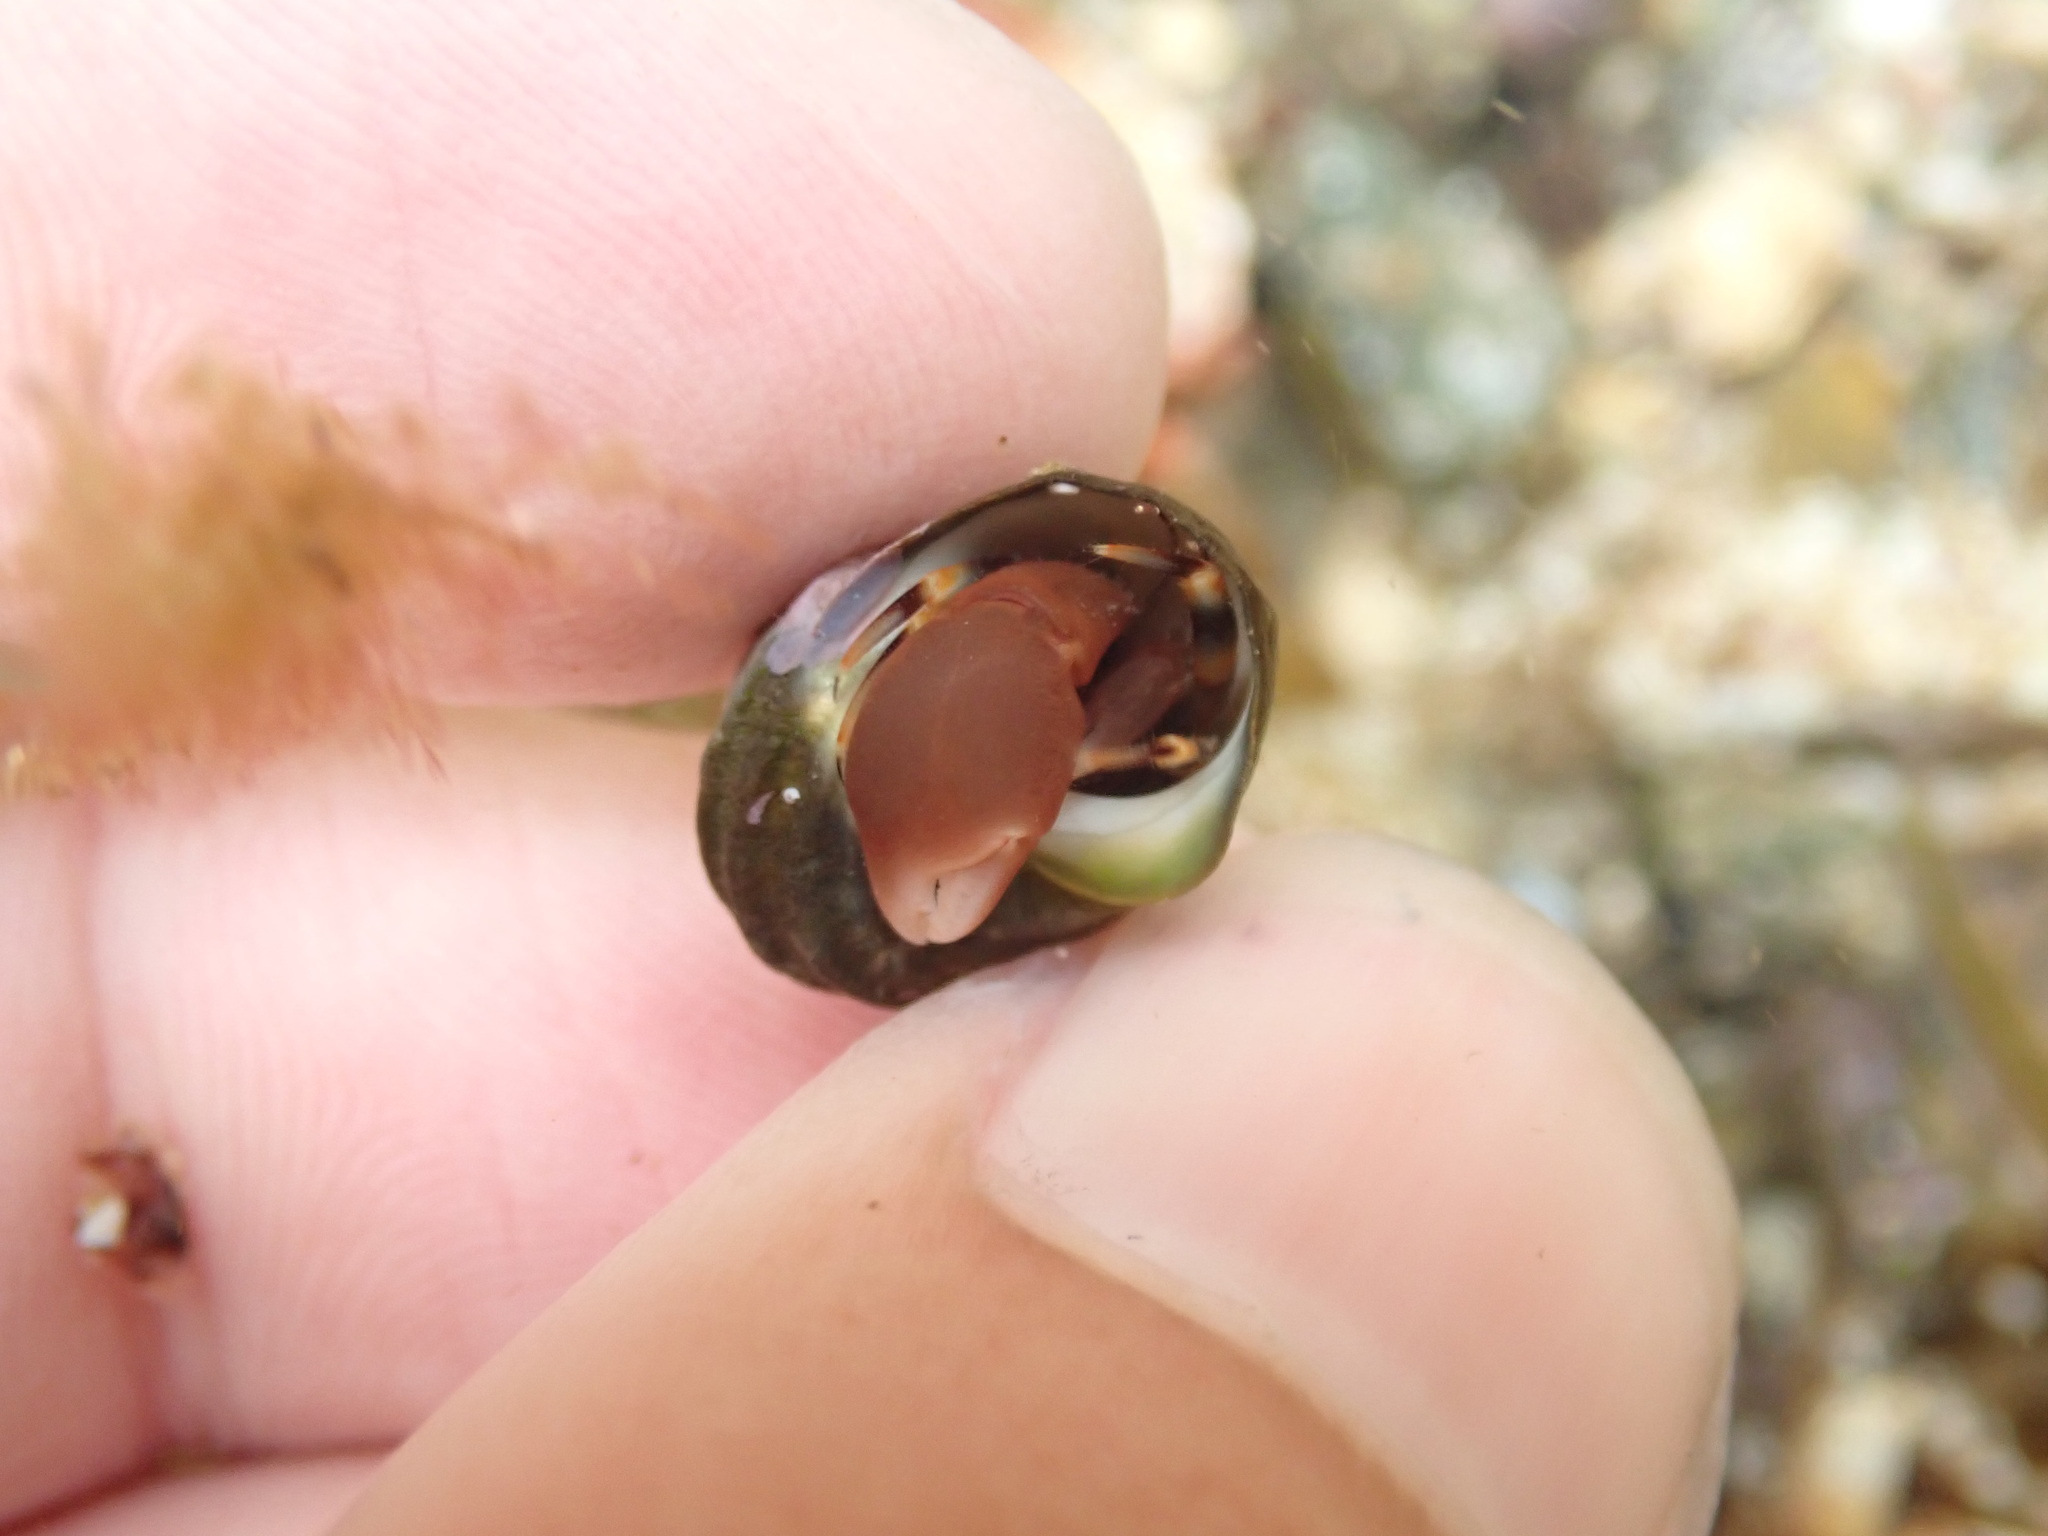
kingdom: Animalia
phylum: Arthropoda
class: Malacostraca
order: Decapoda
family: Paguridae
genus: Pagurixus
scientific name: Pagurixus hectori
